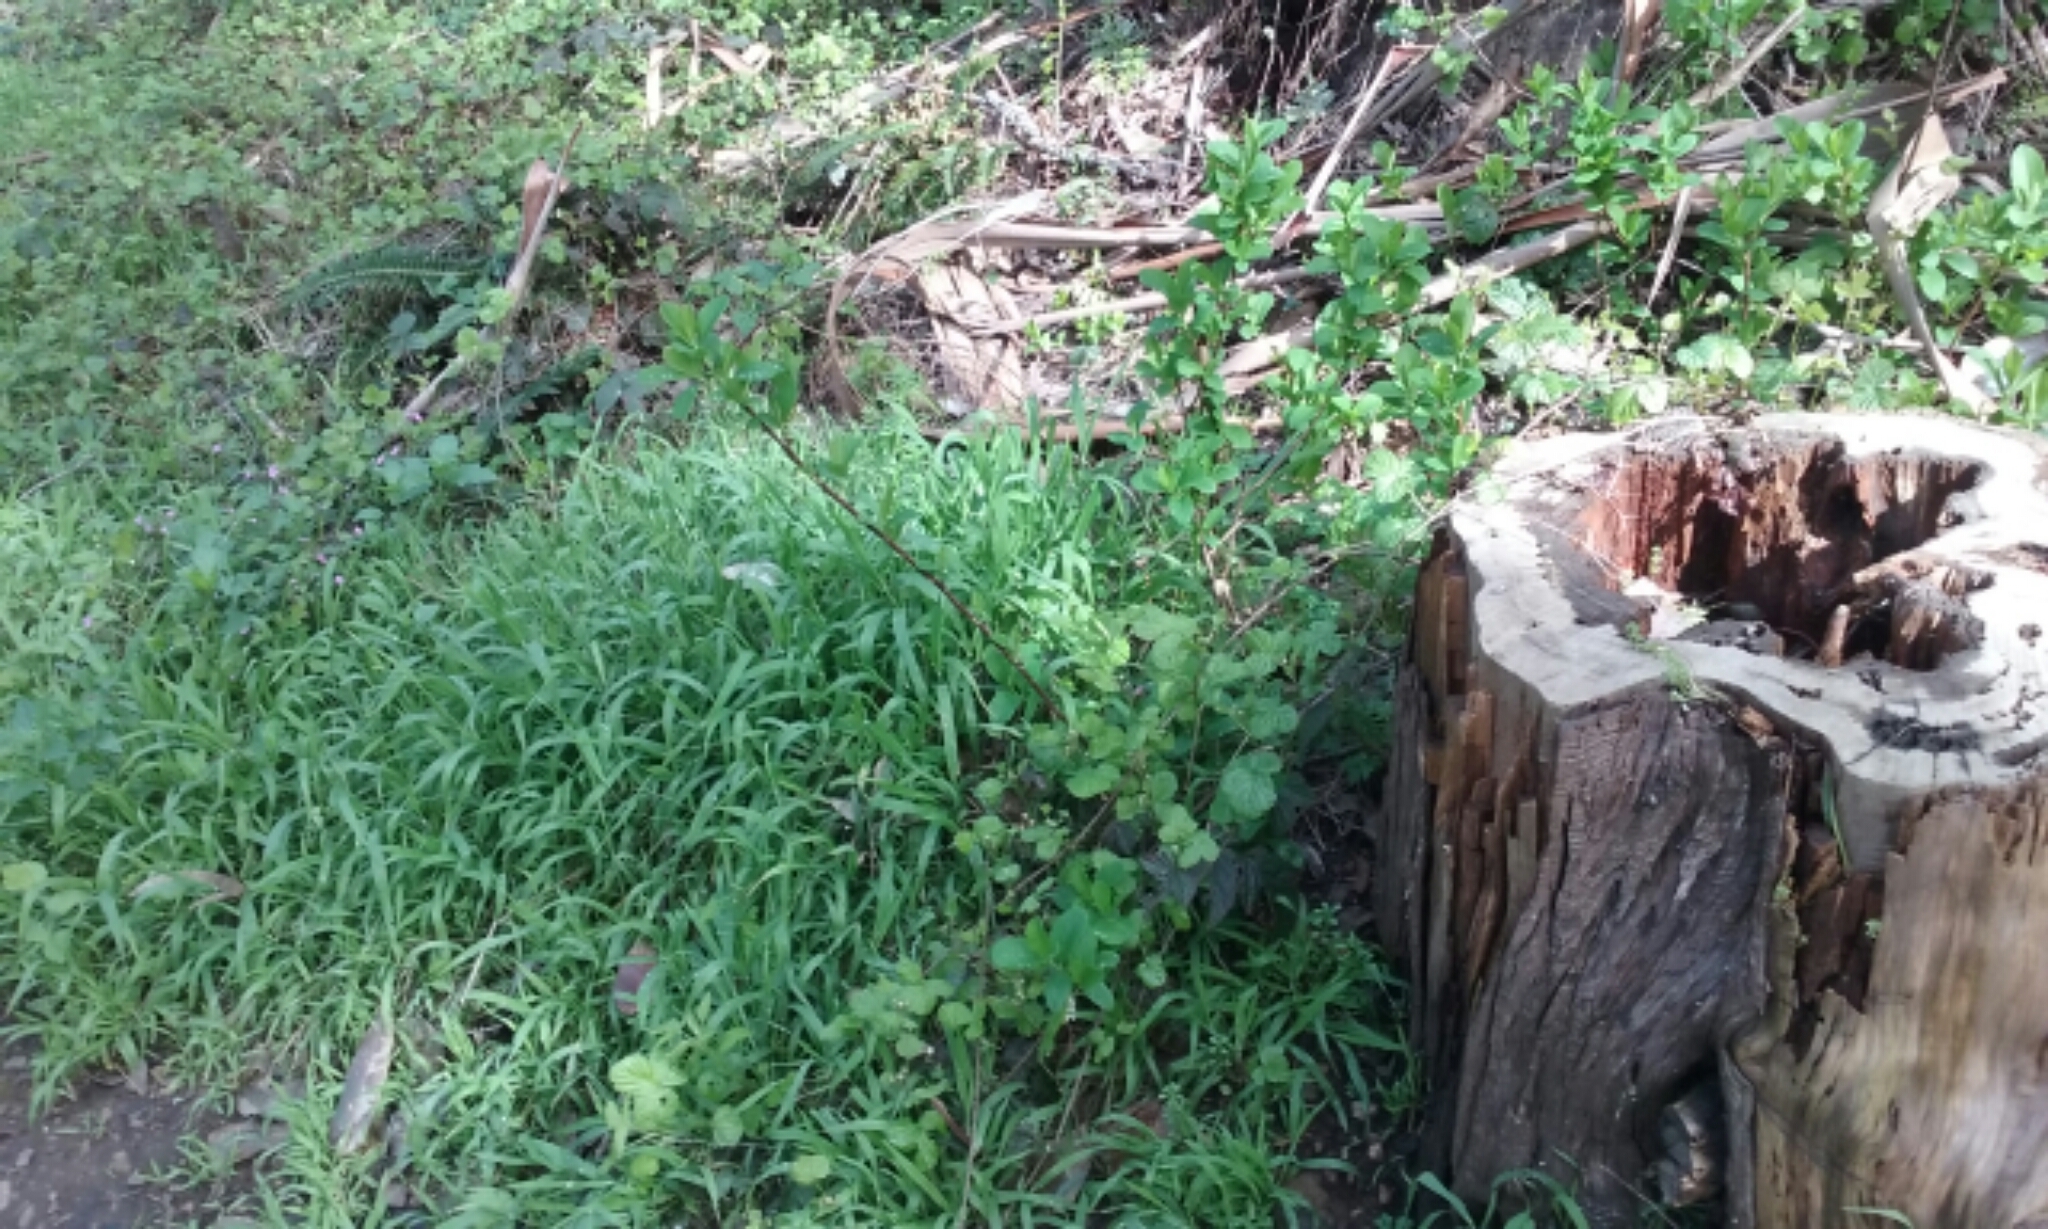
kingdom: Plantae
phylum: Tracheophyta
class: Magnoliopsida
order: Rosales
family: Rosaceae
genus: Oemleria
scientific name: Oemleria cerasiformis
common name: Osoberry
